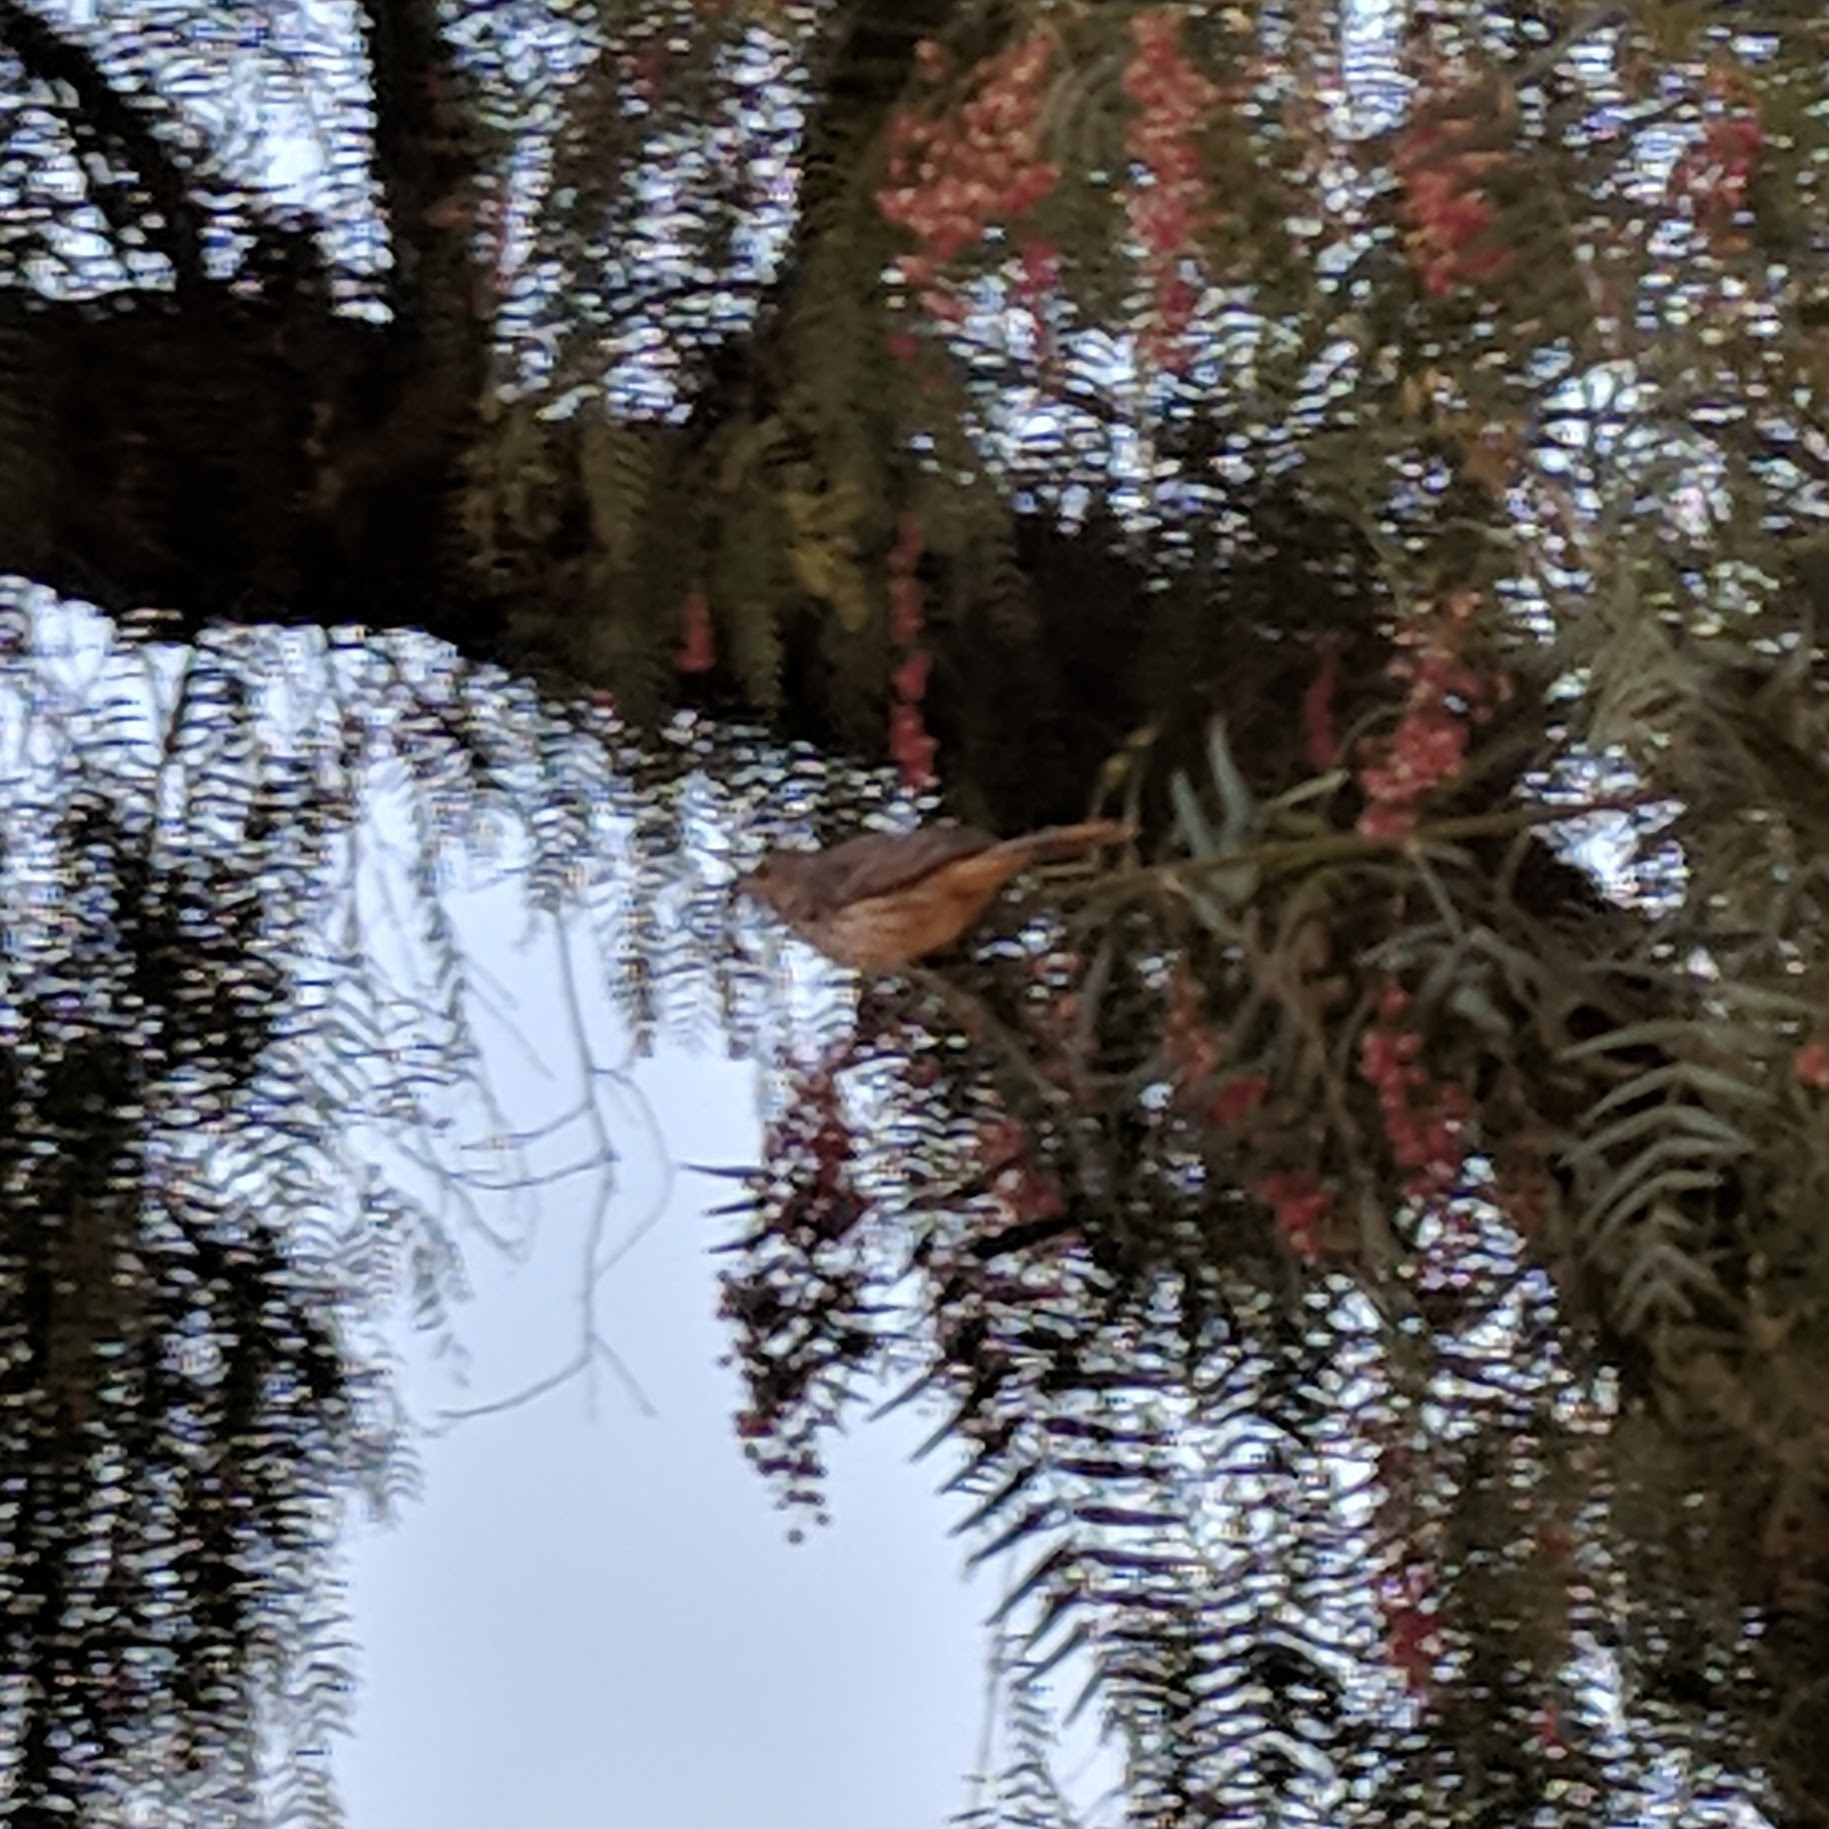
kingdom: Animalia
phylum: Chordata
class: Aves
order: Passeriformes
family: Mimidae
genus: Oreoscoptes
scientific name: Oreoscoptes montanus
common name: Sage thrasher
